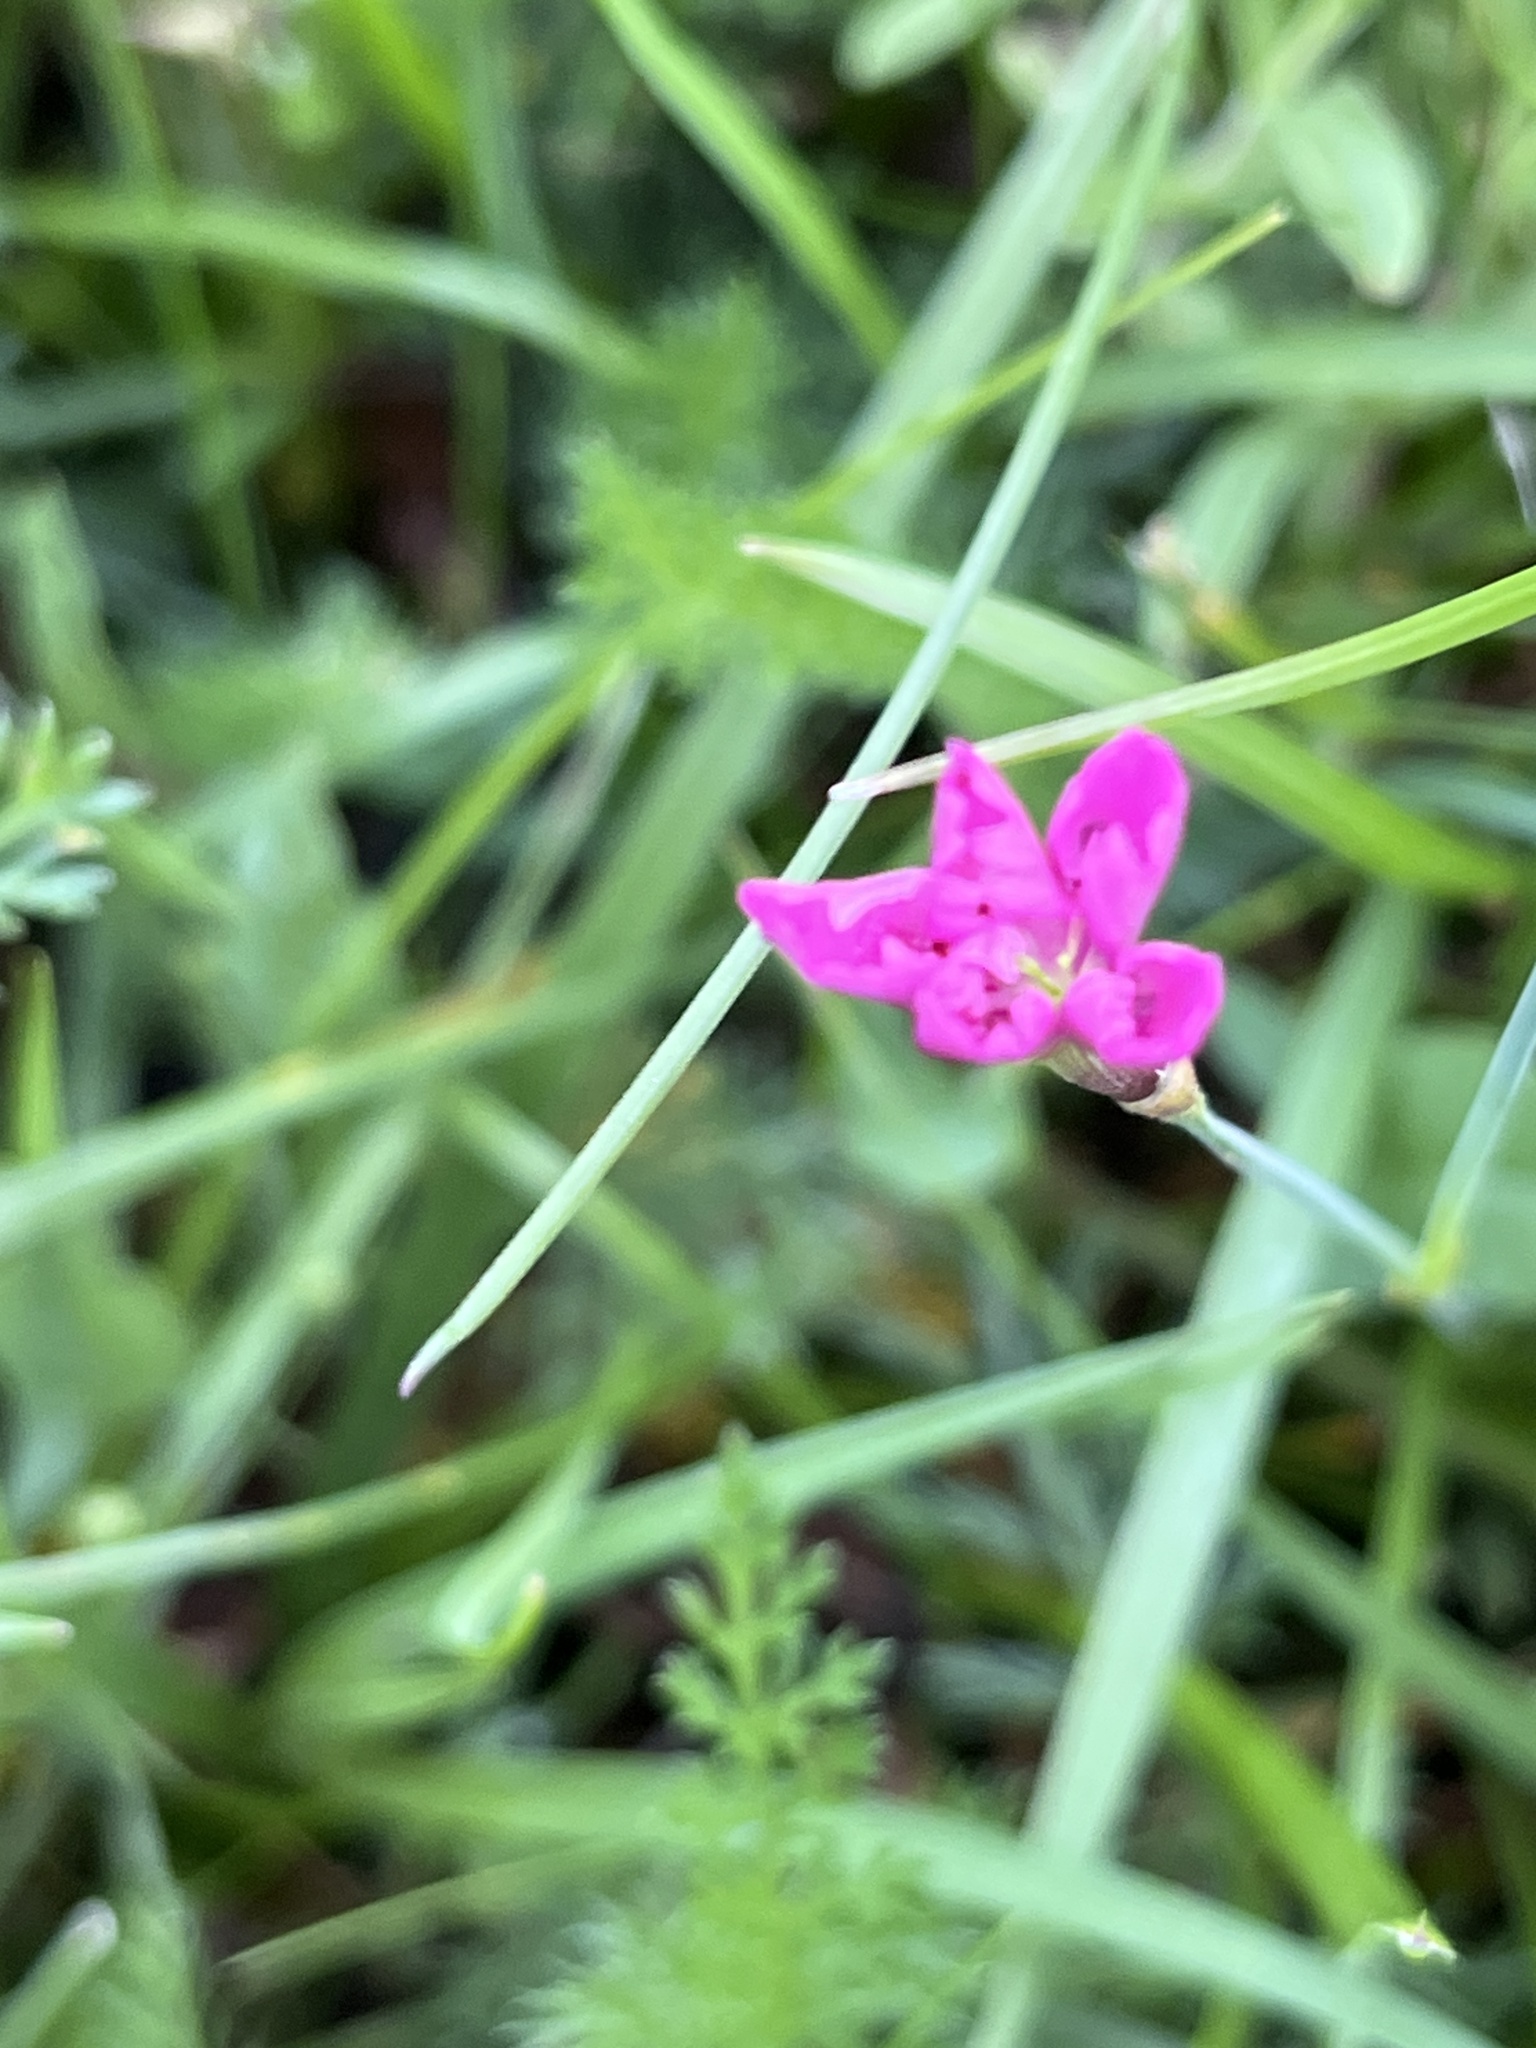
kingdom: Plantae
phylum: Tracheophyta
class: Magnoliopsida
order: Caryophyllales
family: Caryophyllaceae
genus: Dianthus
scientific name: Dianthus deltoides
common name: Maiden pink
